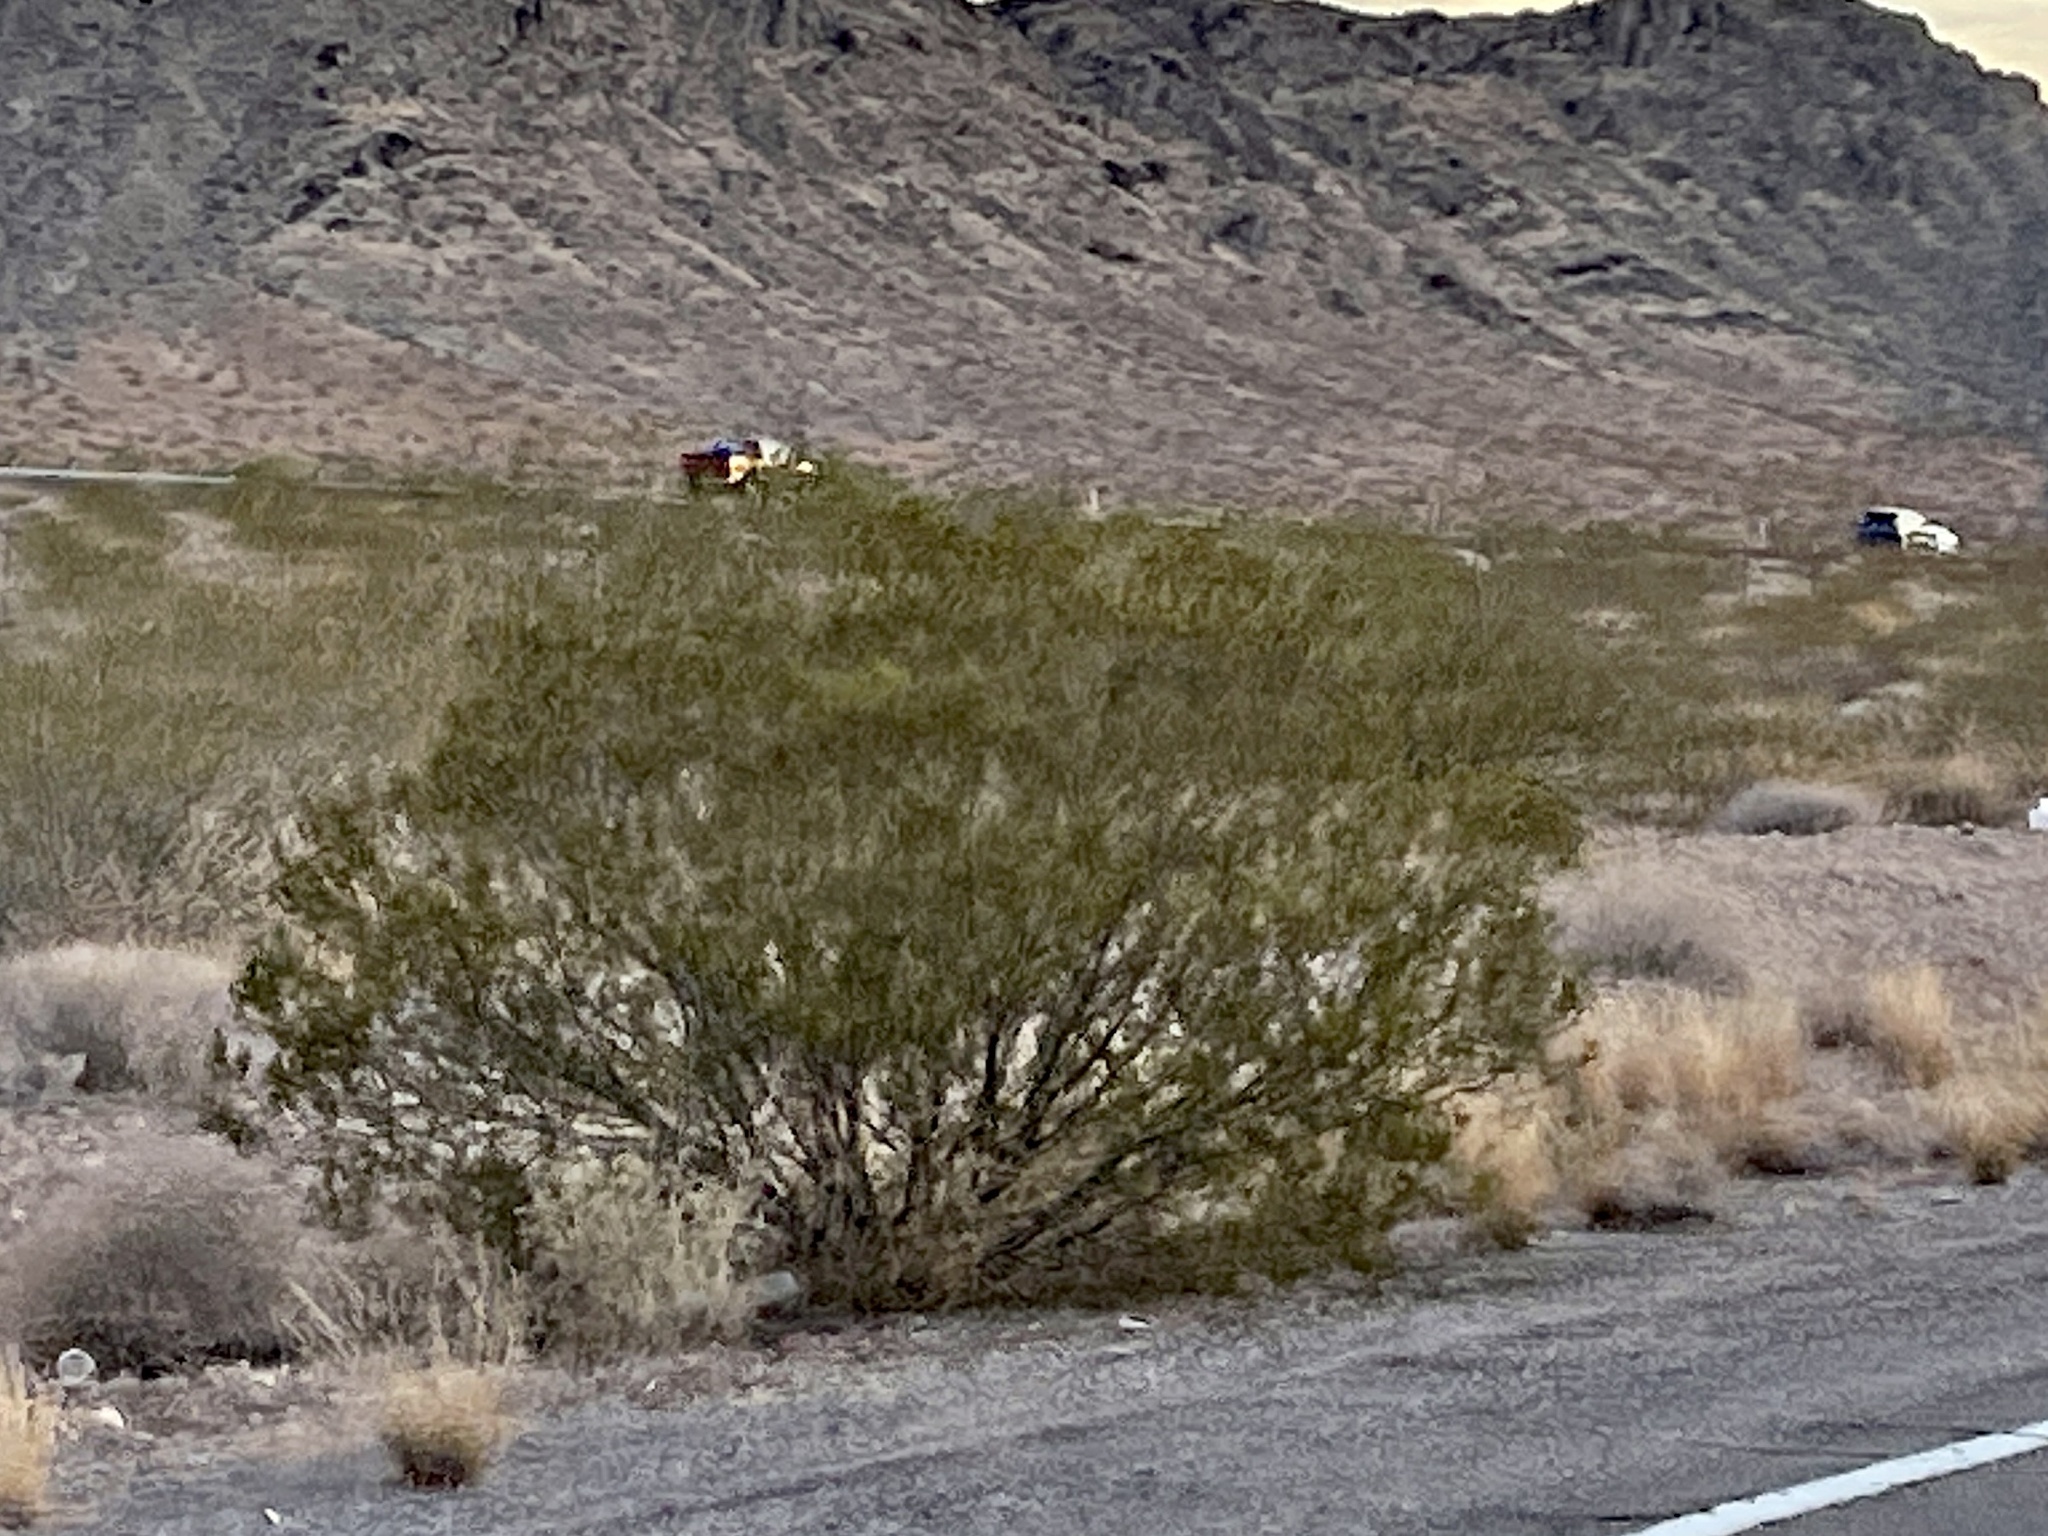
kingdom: Plantae
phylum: Tracheophyta
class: Magnoliopsida
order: Zygophyllales
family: Zygophyllaceae
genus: Larrea
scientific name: Larrea tridentata
